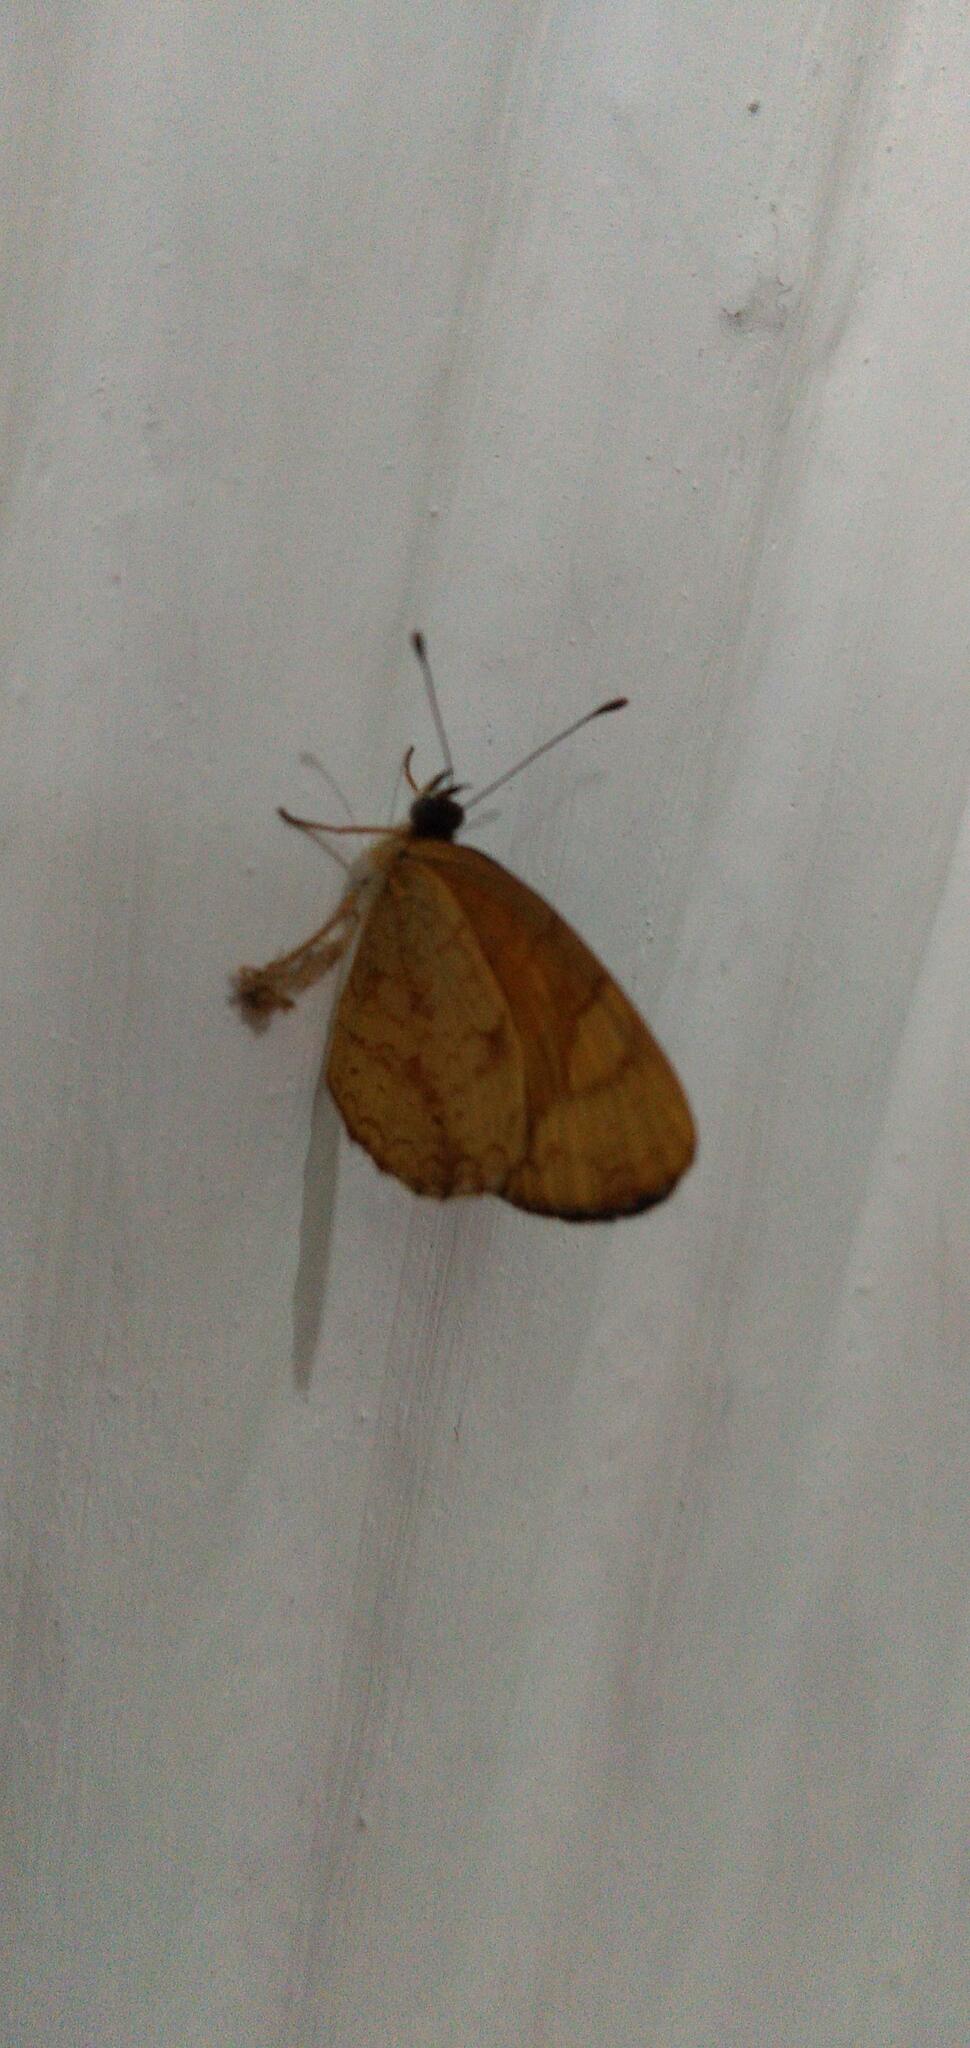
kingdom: Animalia
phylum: Arthropoda
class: Insecta
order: Lepidoptera
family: Nymphalidae
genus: Tegosa
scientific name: Tegosa claudina
